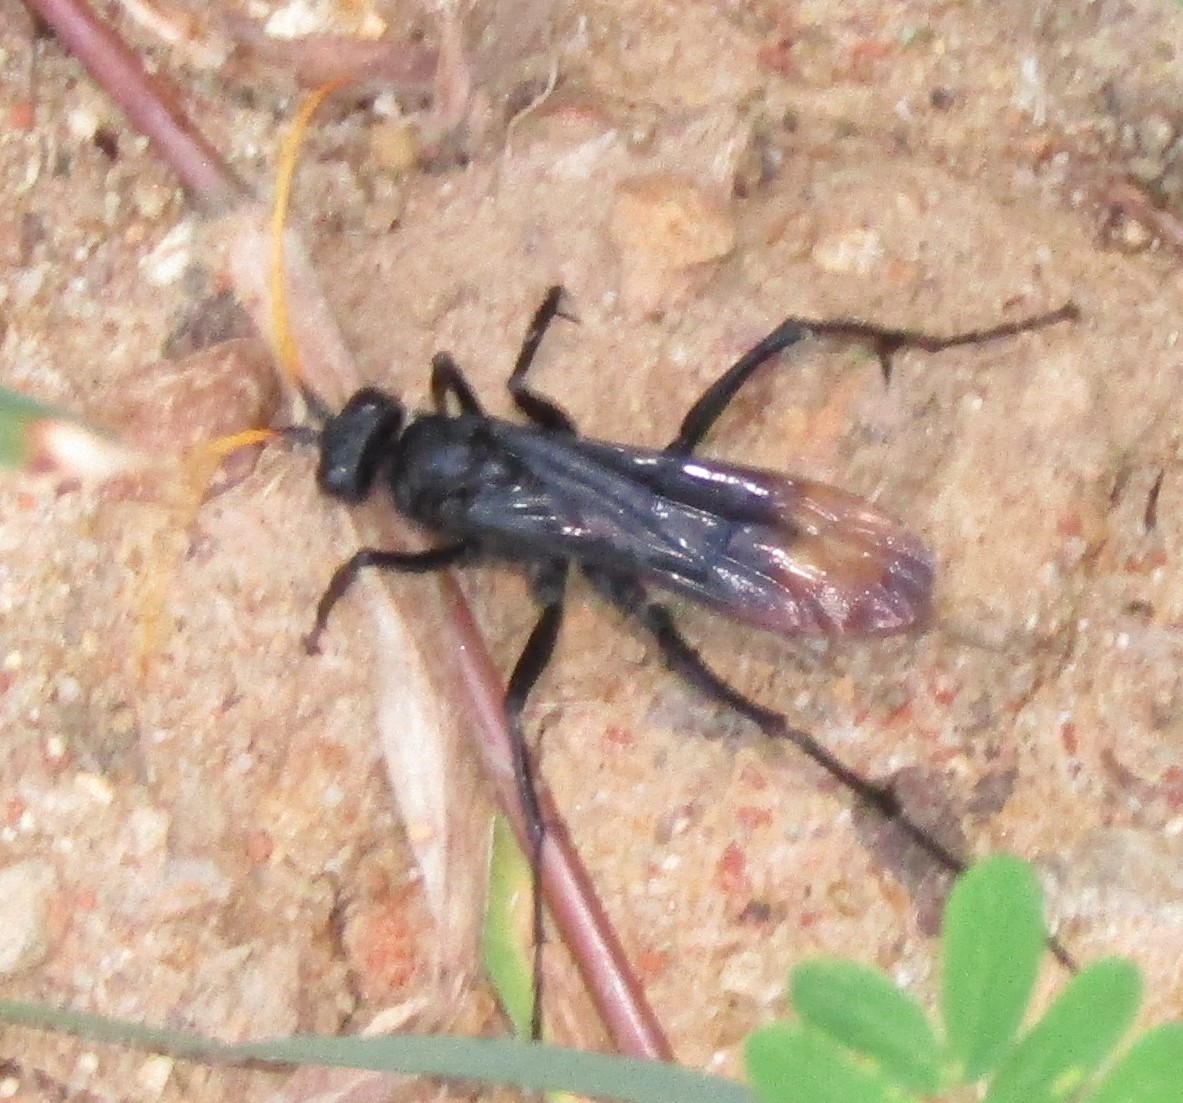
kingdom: Animalia
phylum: Arthropoda
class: Insecta
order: Hymenoptera
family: Pompilidae
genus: Entypus
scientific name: Entypus unifasciatus
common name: Eastern tawny-horned spider wasp
